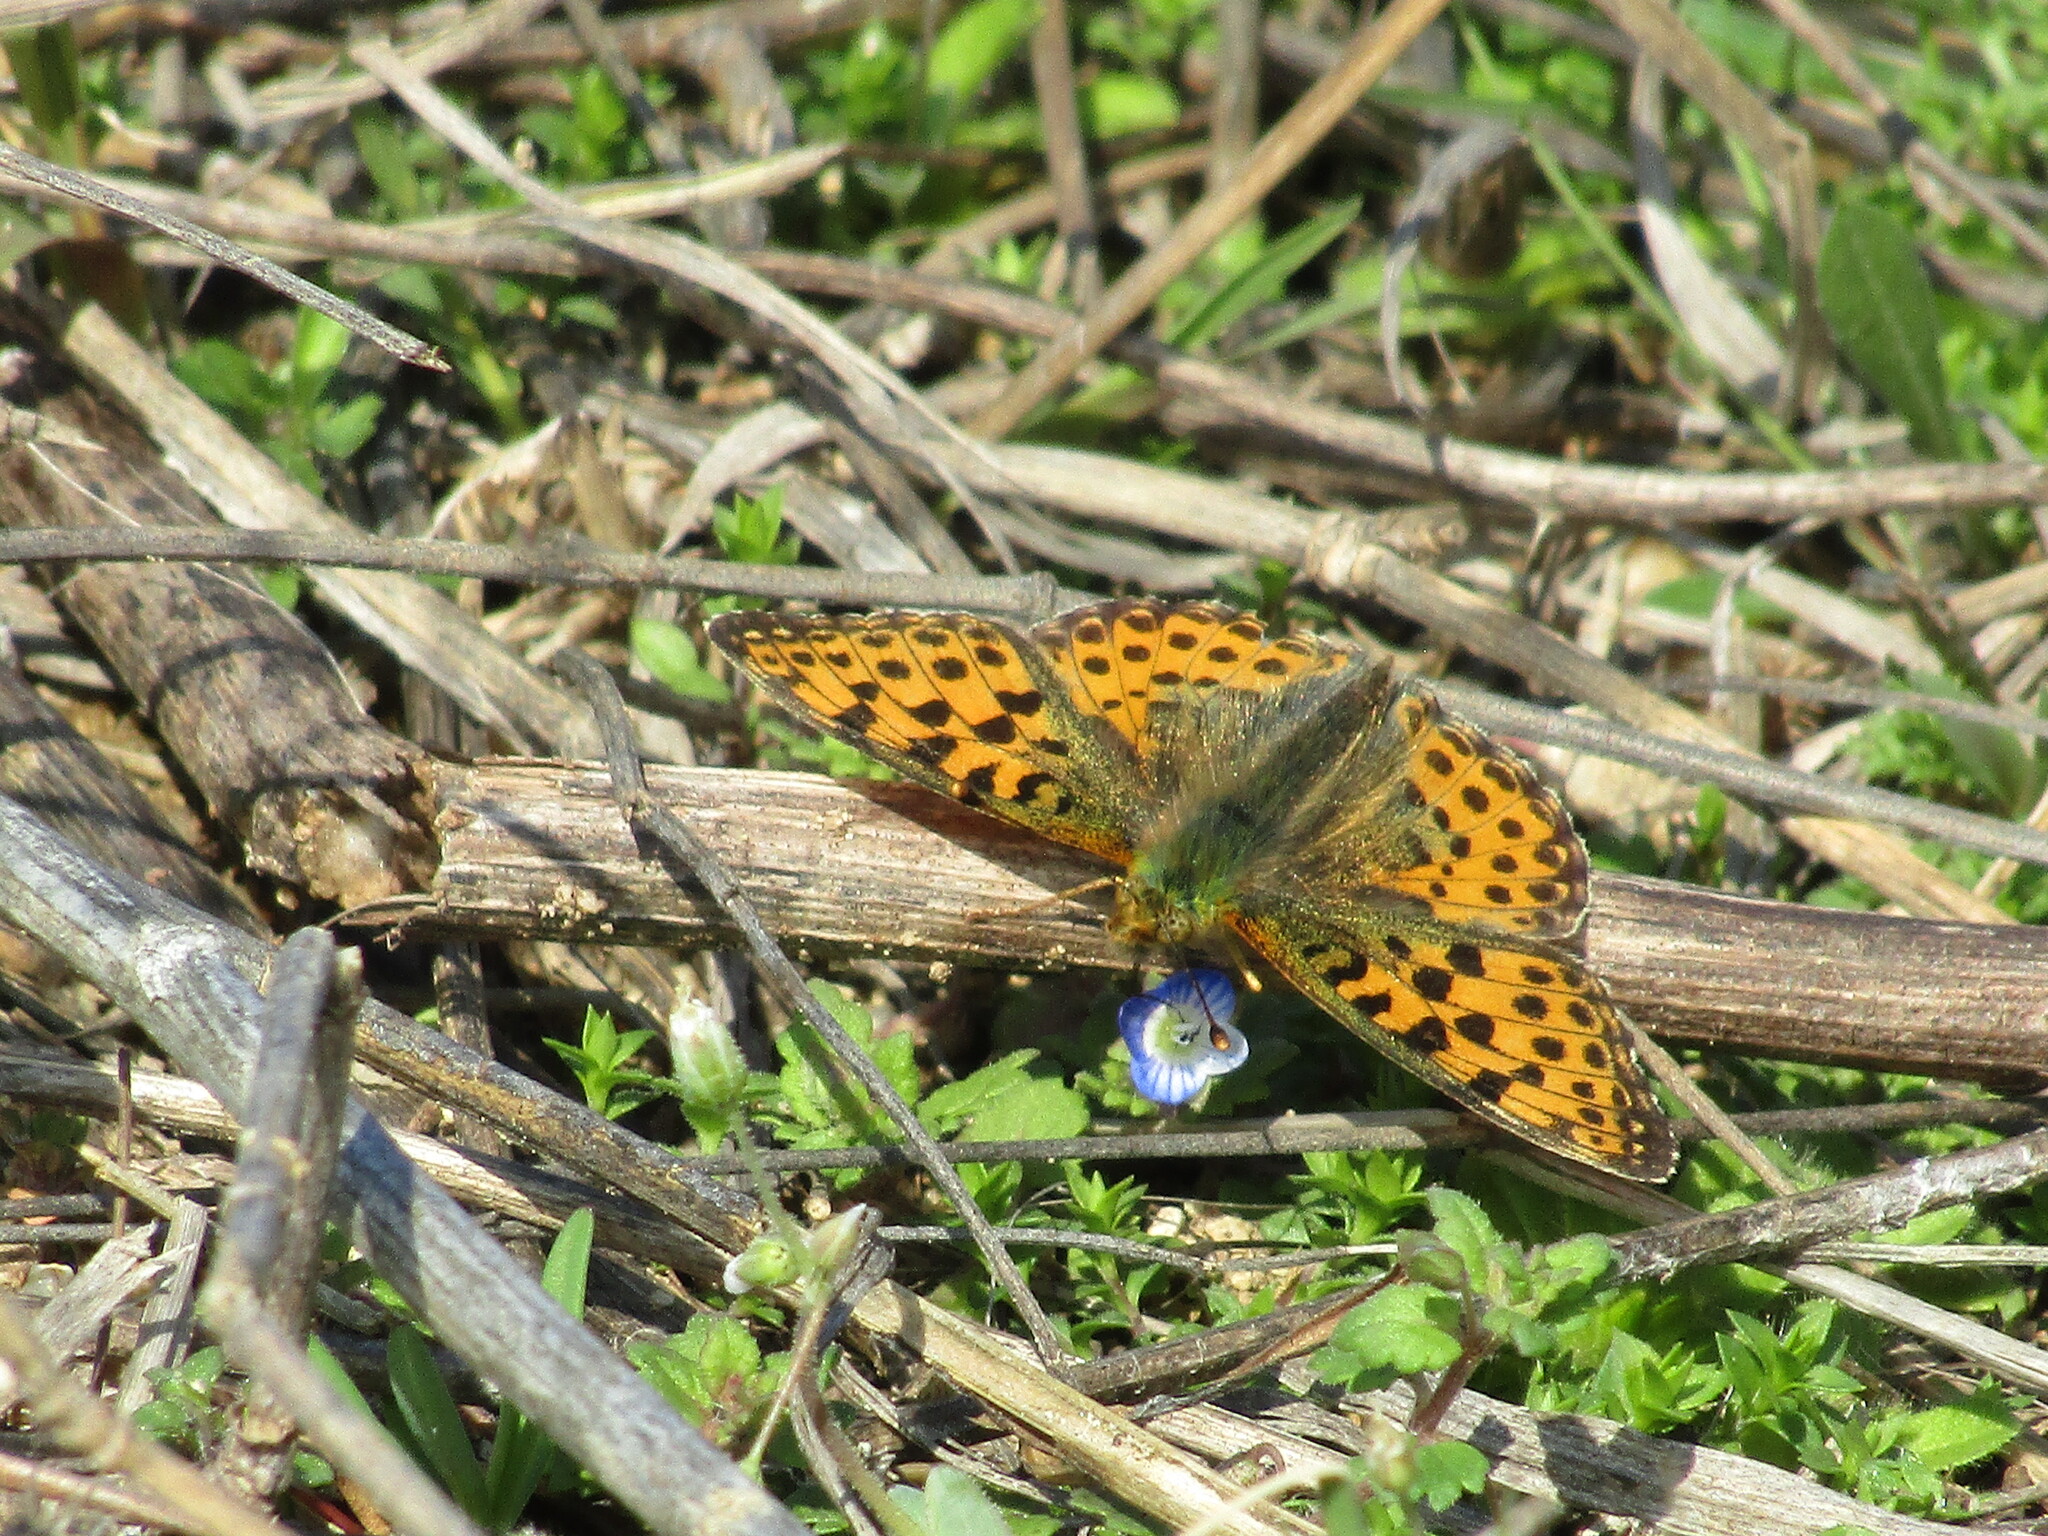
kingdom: Animalia
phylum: Arthropoda
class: Insecta
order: Lepidoptera
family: Nymphalidae
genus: Issoria
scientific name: Issoria lathonia
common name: Queen of spain fritillary
